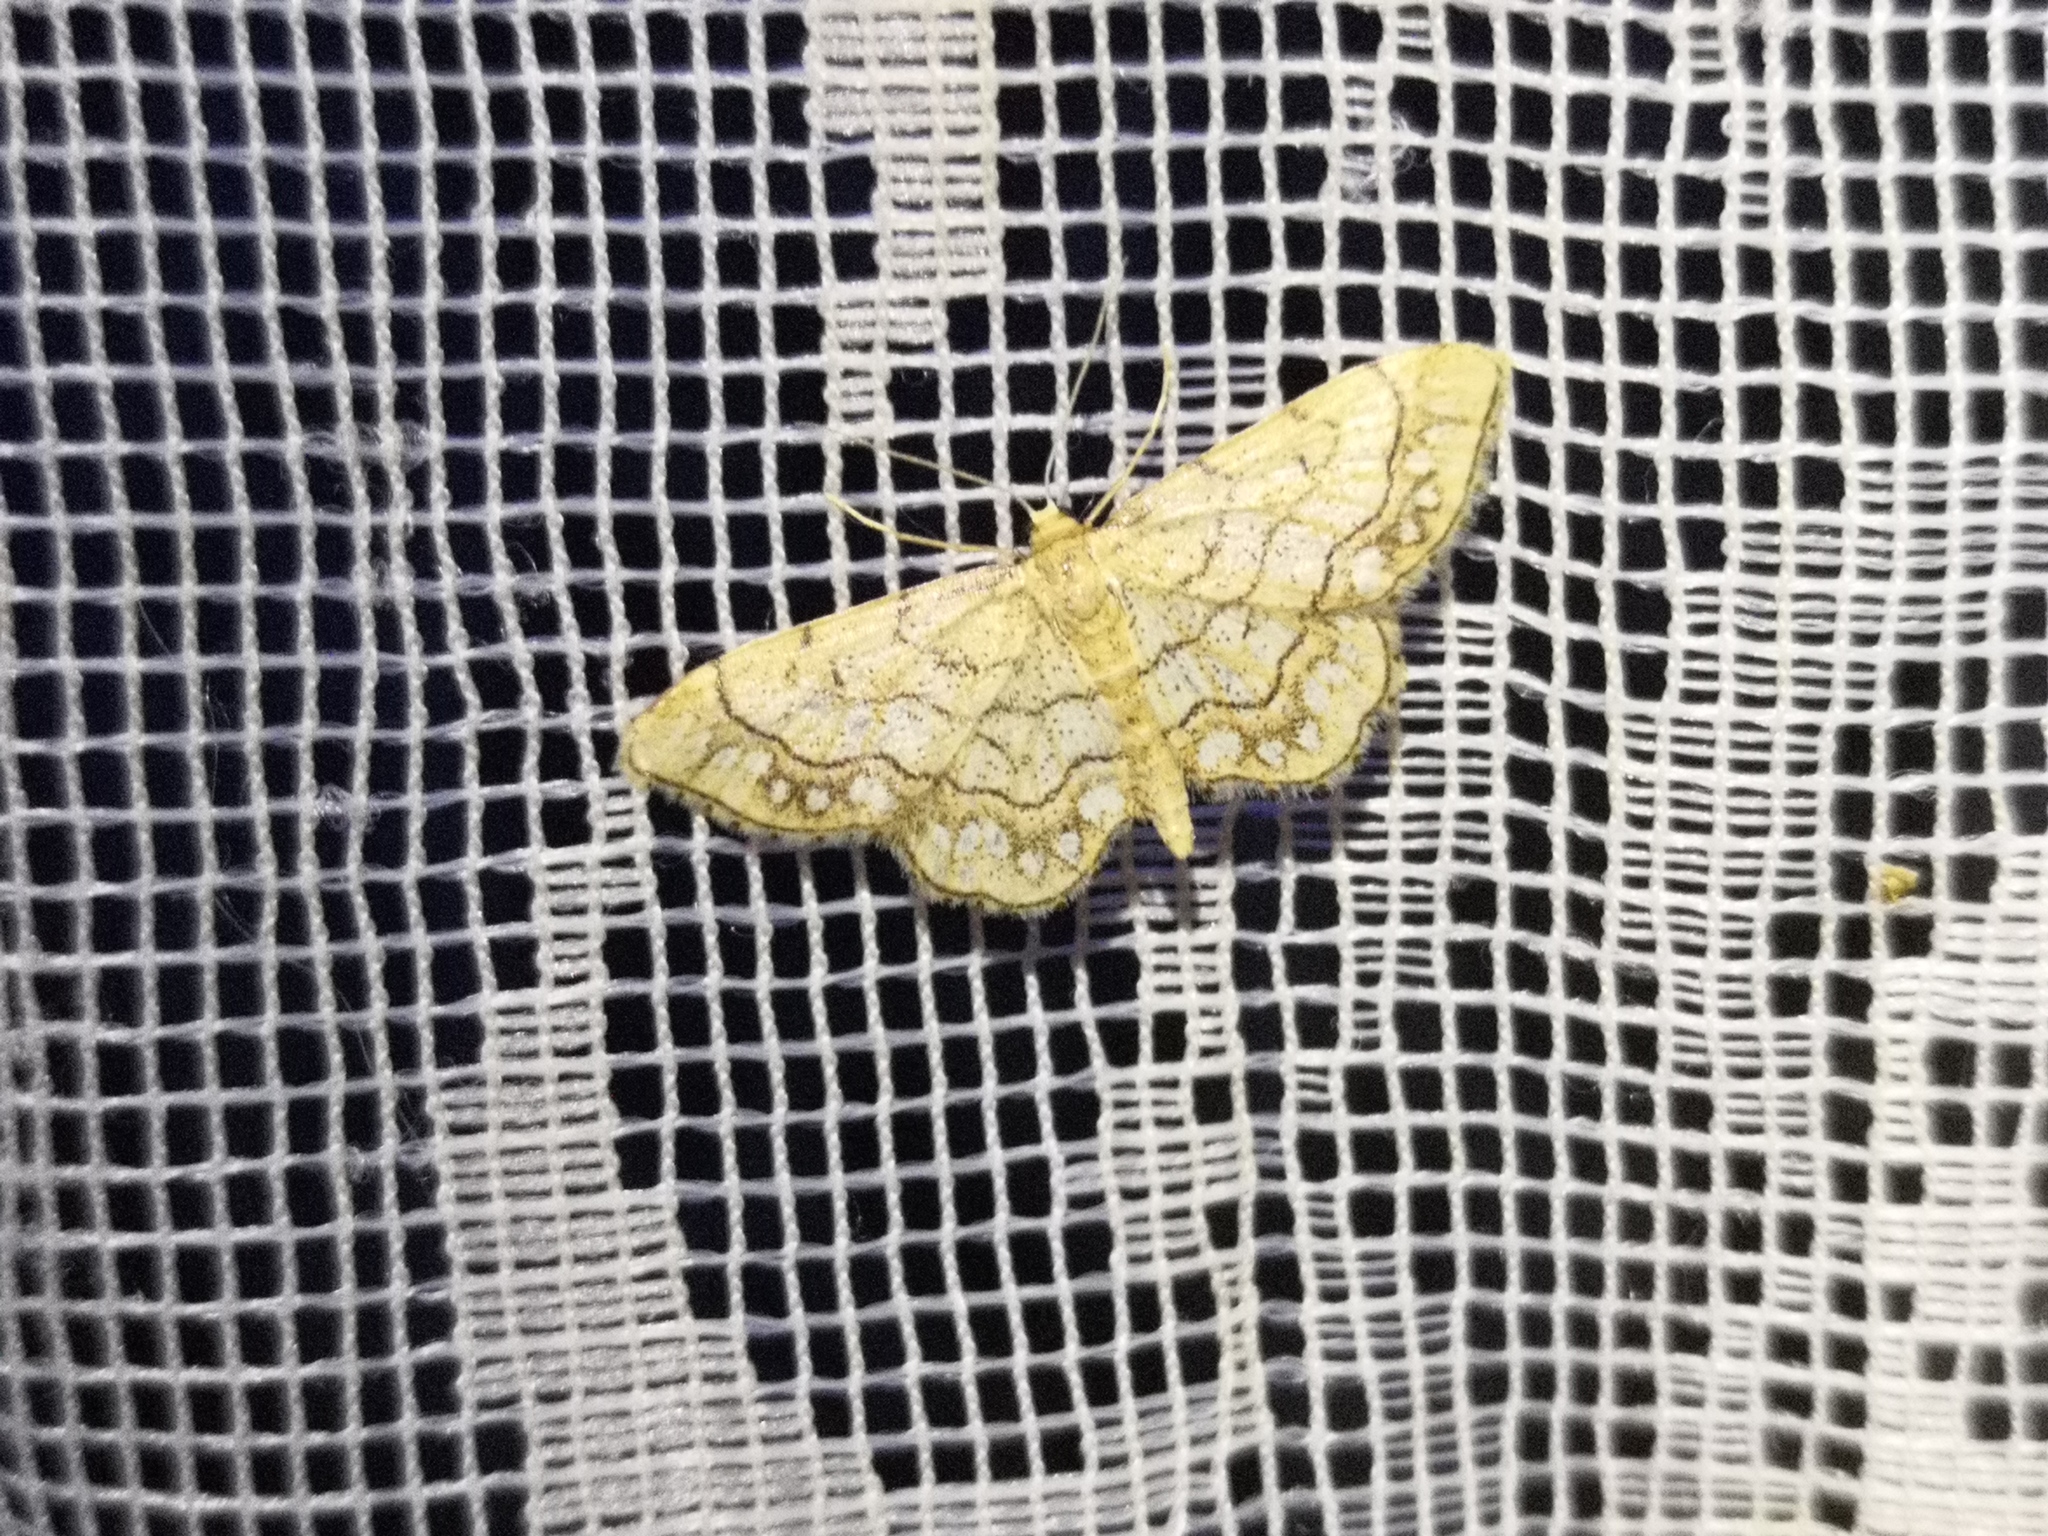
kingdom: Animalia
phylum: Arthropoda
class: Insecta
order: Lepidoptera
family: Geometridae
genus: Idaea
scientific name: Idaea moniliata
